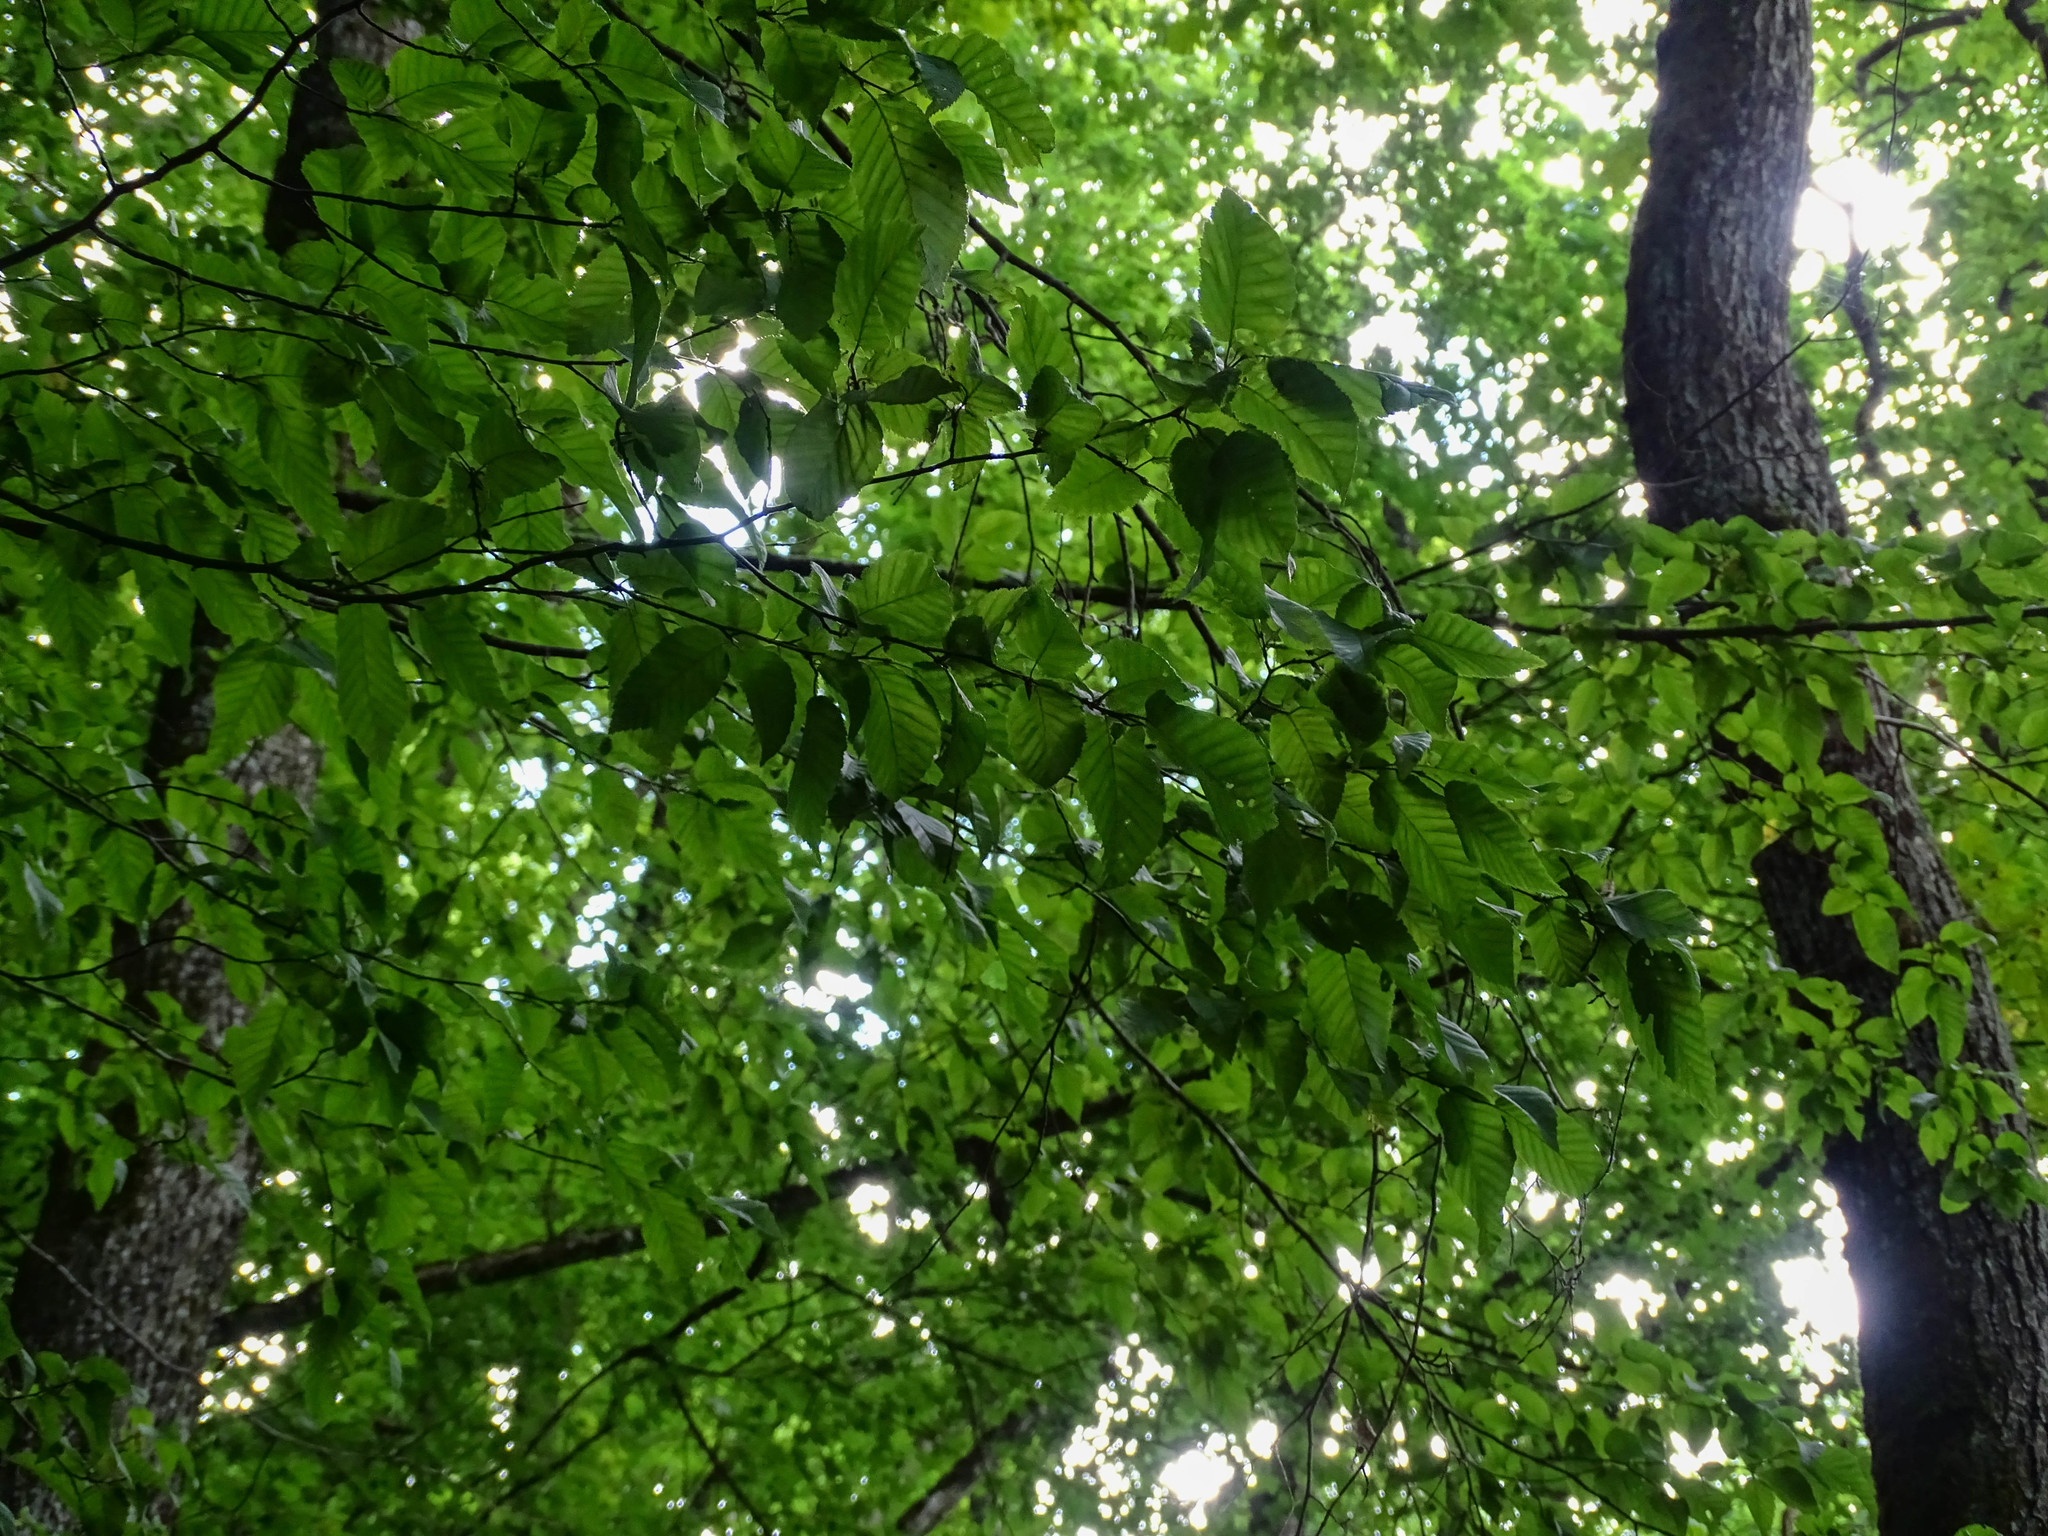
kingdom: Plantae
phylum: Tracheophyta
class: Magnoliopsida
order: Fagales
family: Betulaceae
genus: Carpinus
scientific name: Carpinus betulus
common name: Hornbeam
